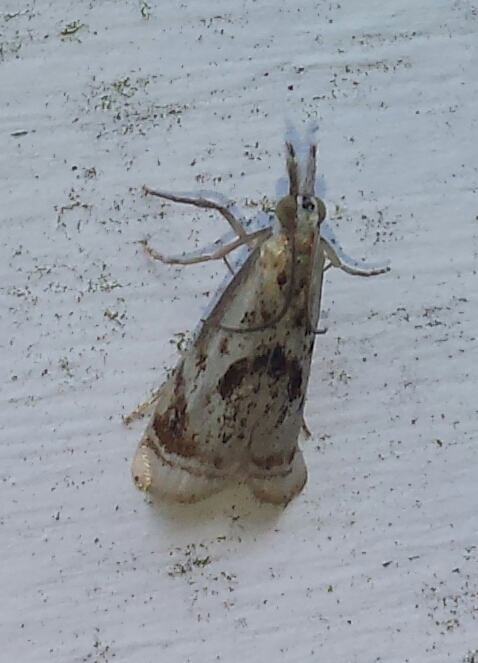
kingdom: Animalia
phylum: Arthropoda
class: Insecta
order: Lepidoptera
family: Crambidae
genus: Microcrambus
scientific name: Microcrambus elegans
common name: Elegant grass-veneer
